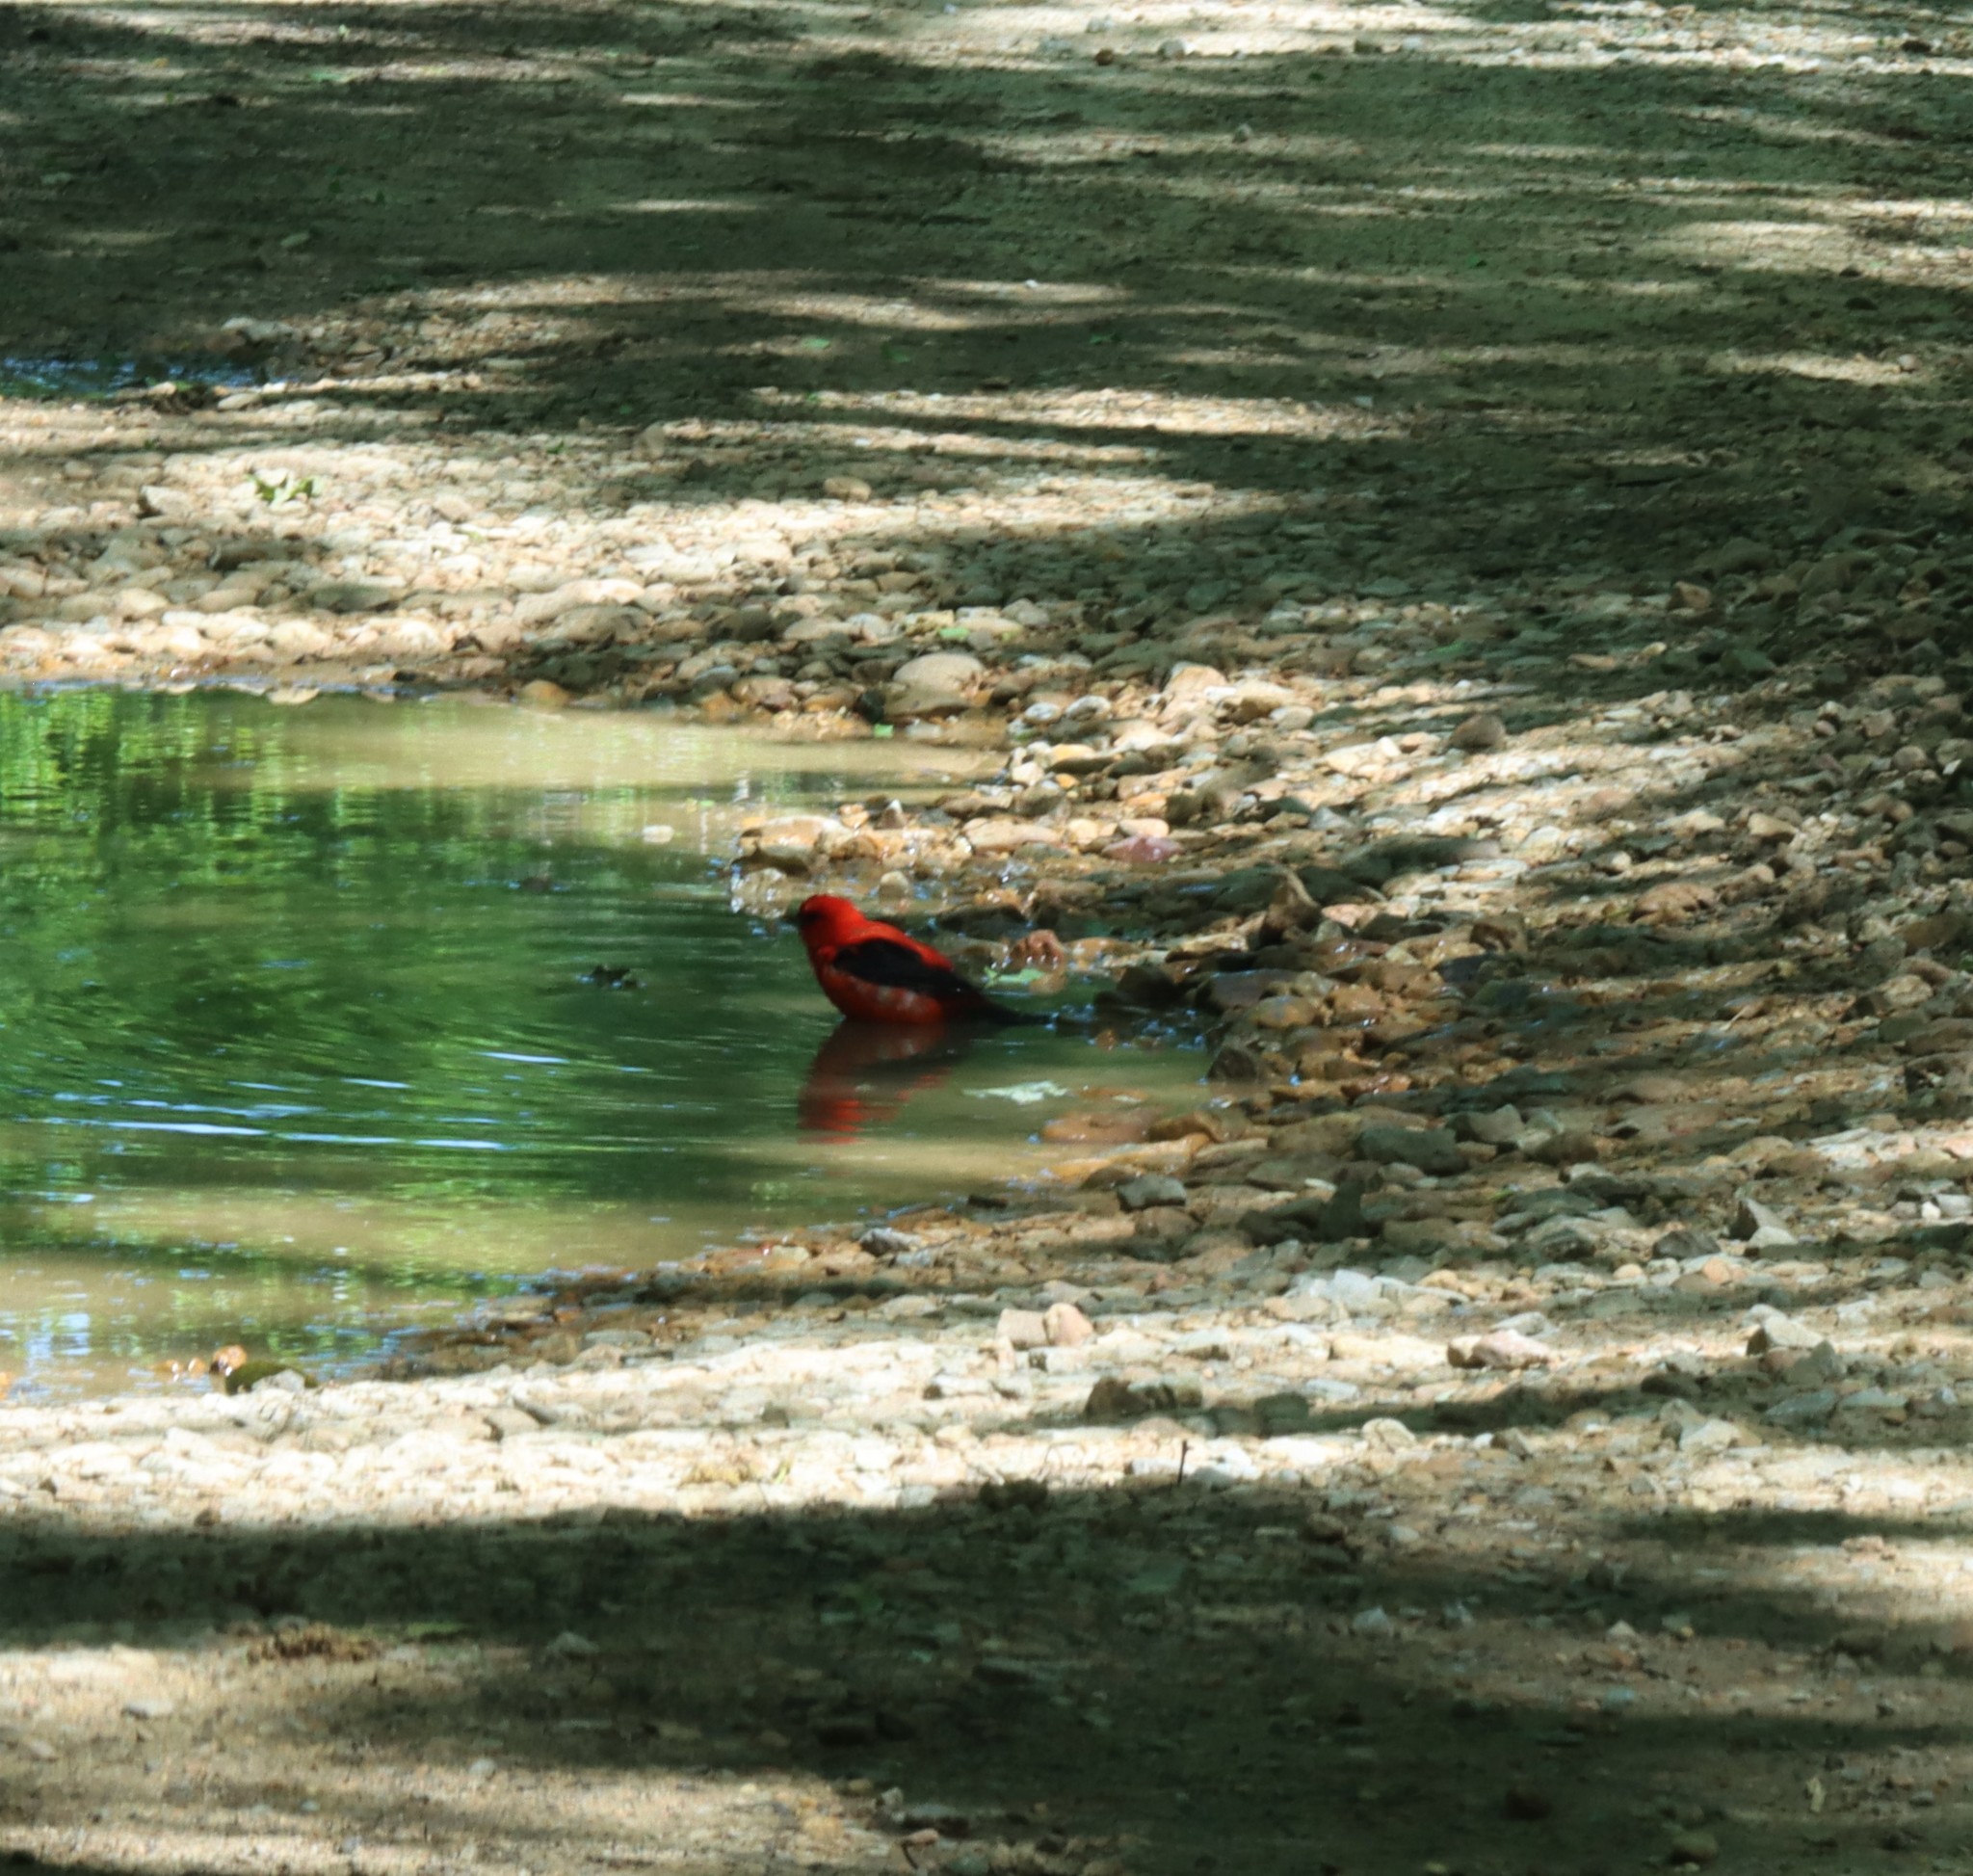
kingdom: Animalia
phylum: Chordata
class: Aves
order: Passeriformes
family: Cardinalidae
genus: Piranga
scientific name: Piranga olivacea
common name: Scarlet tanager
